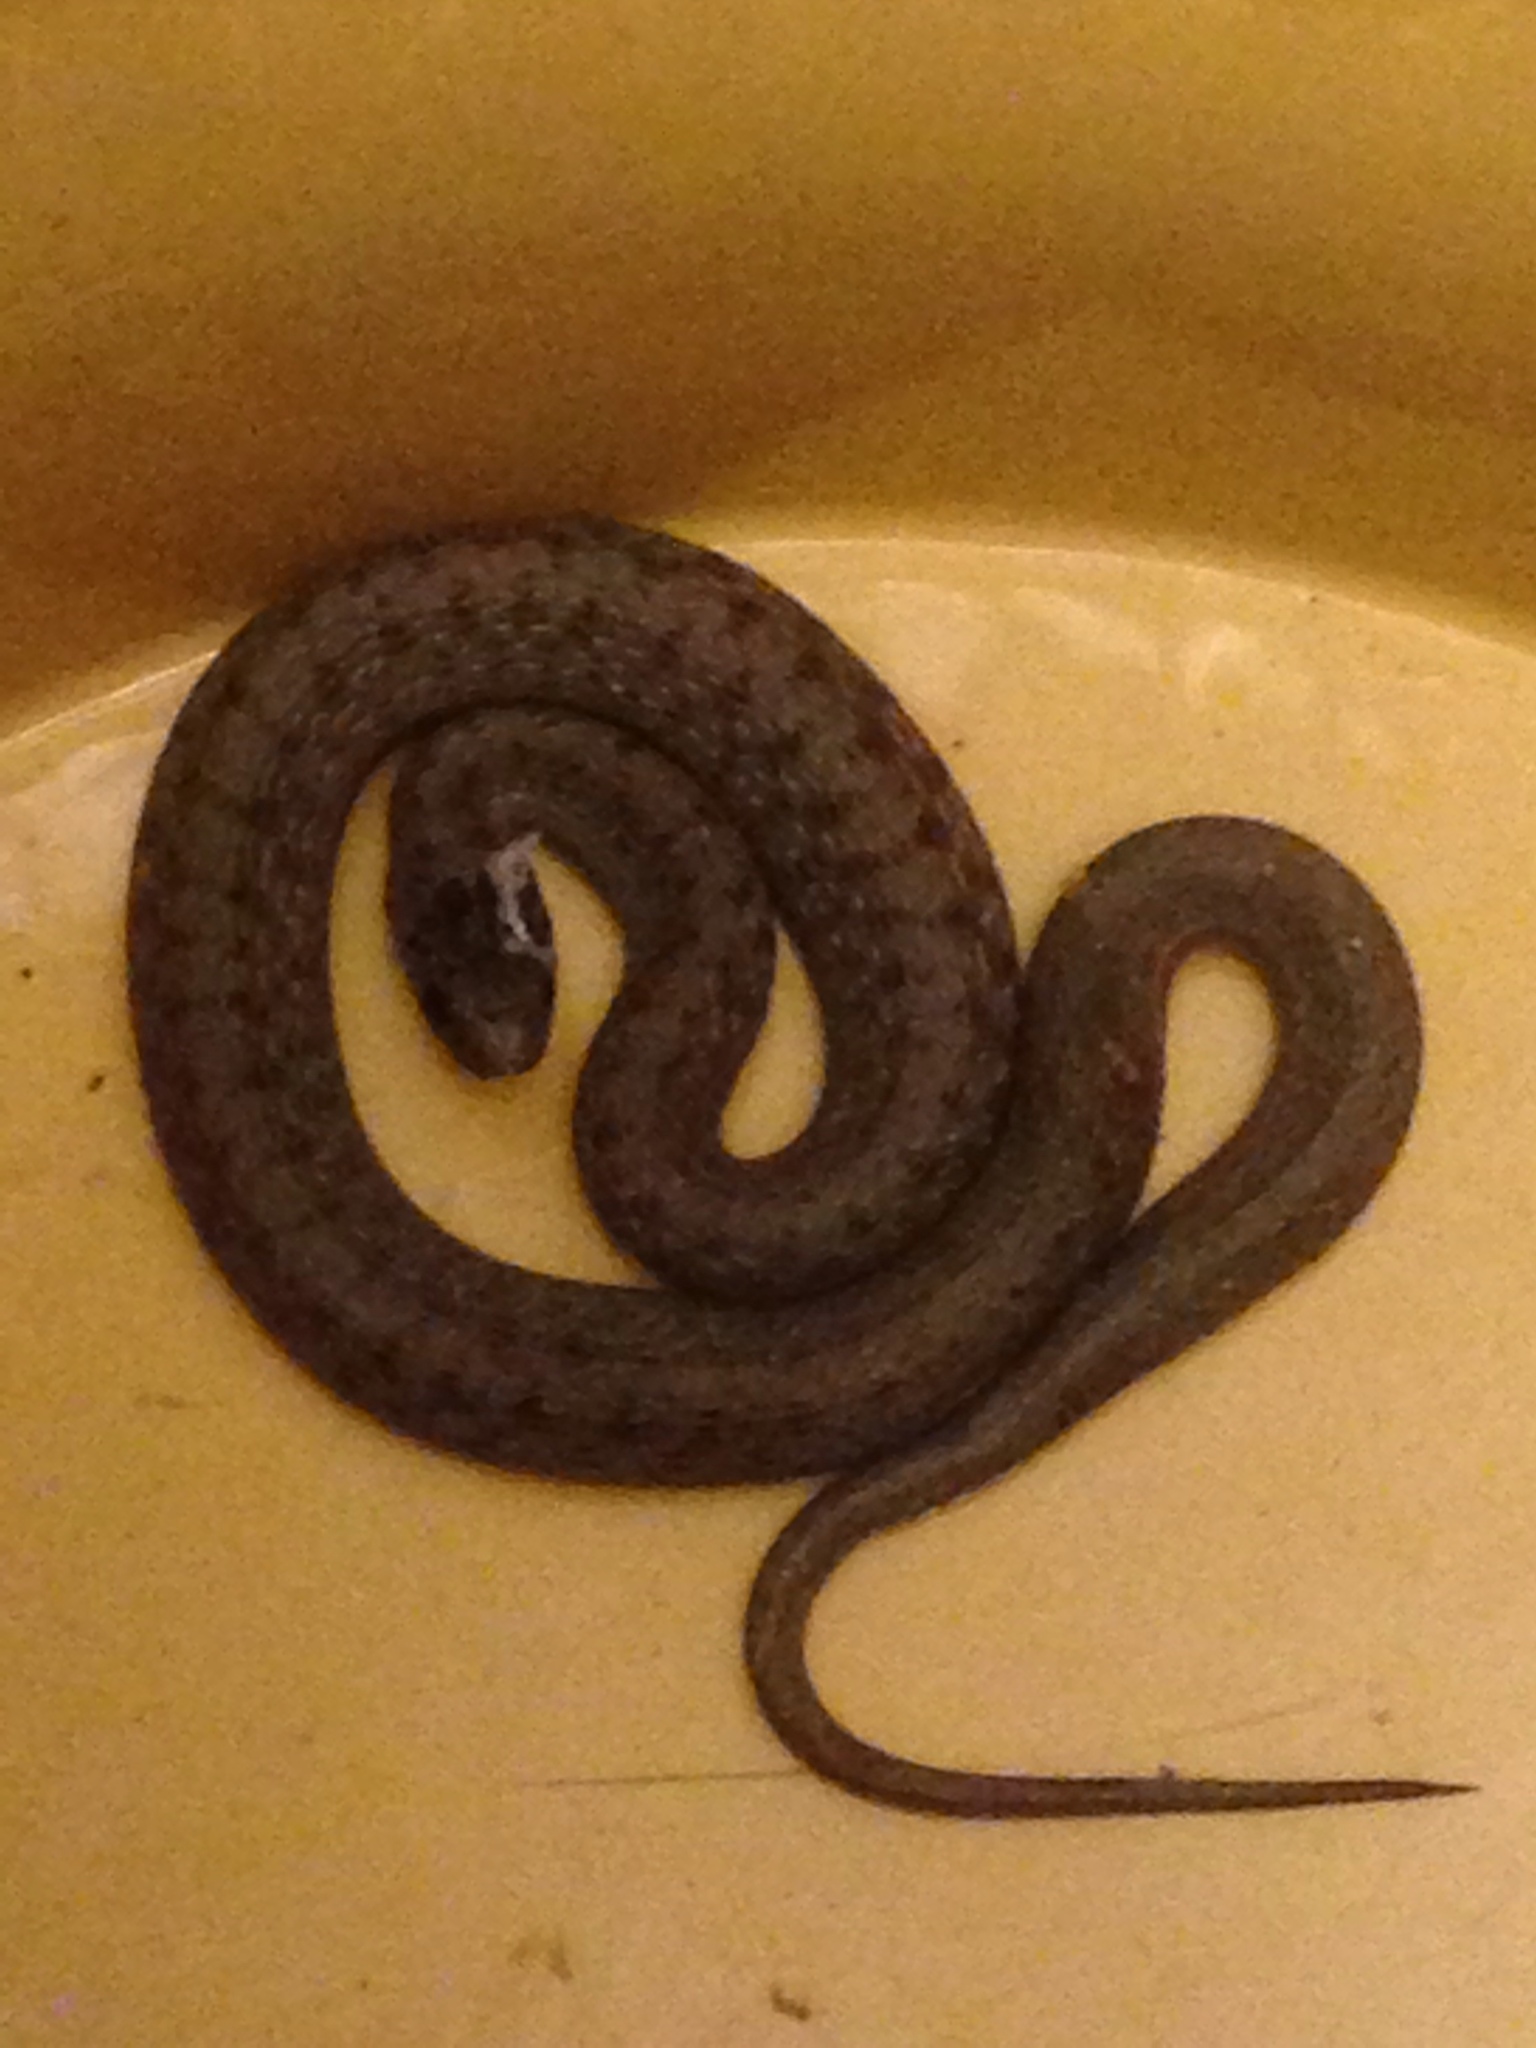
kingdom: Animalia
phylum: Chordata
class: Squamata
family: Colubridae
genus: Storeria
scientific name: Storeria dekayi
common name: (dekay’s) brown snake
